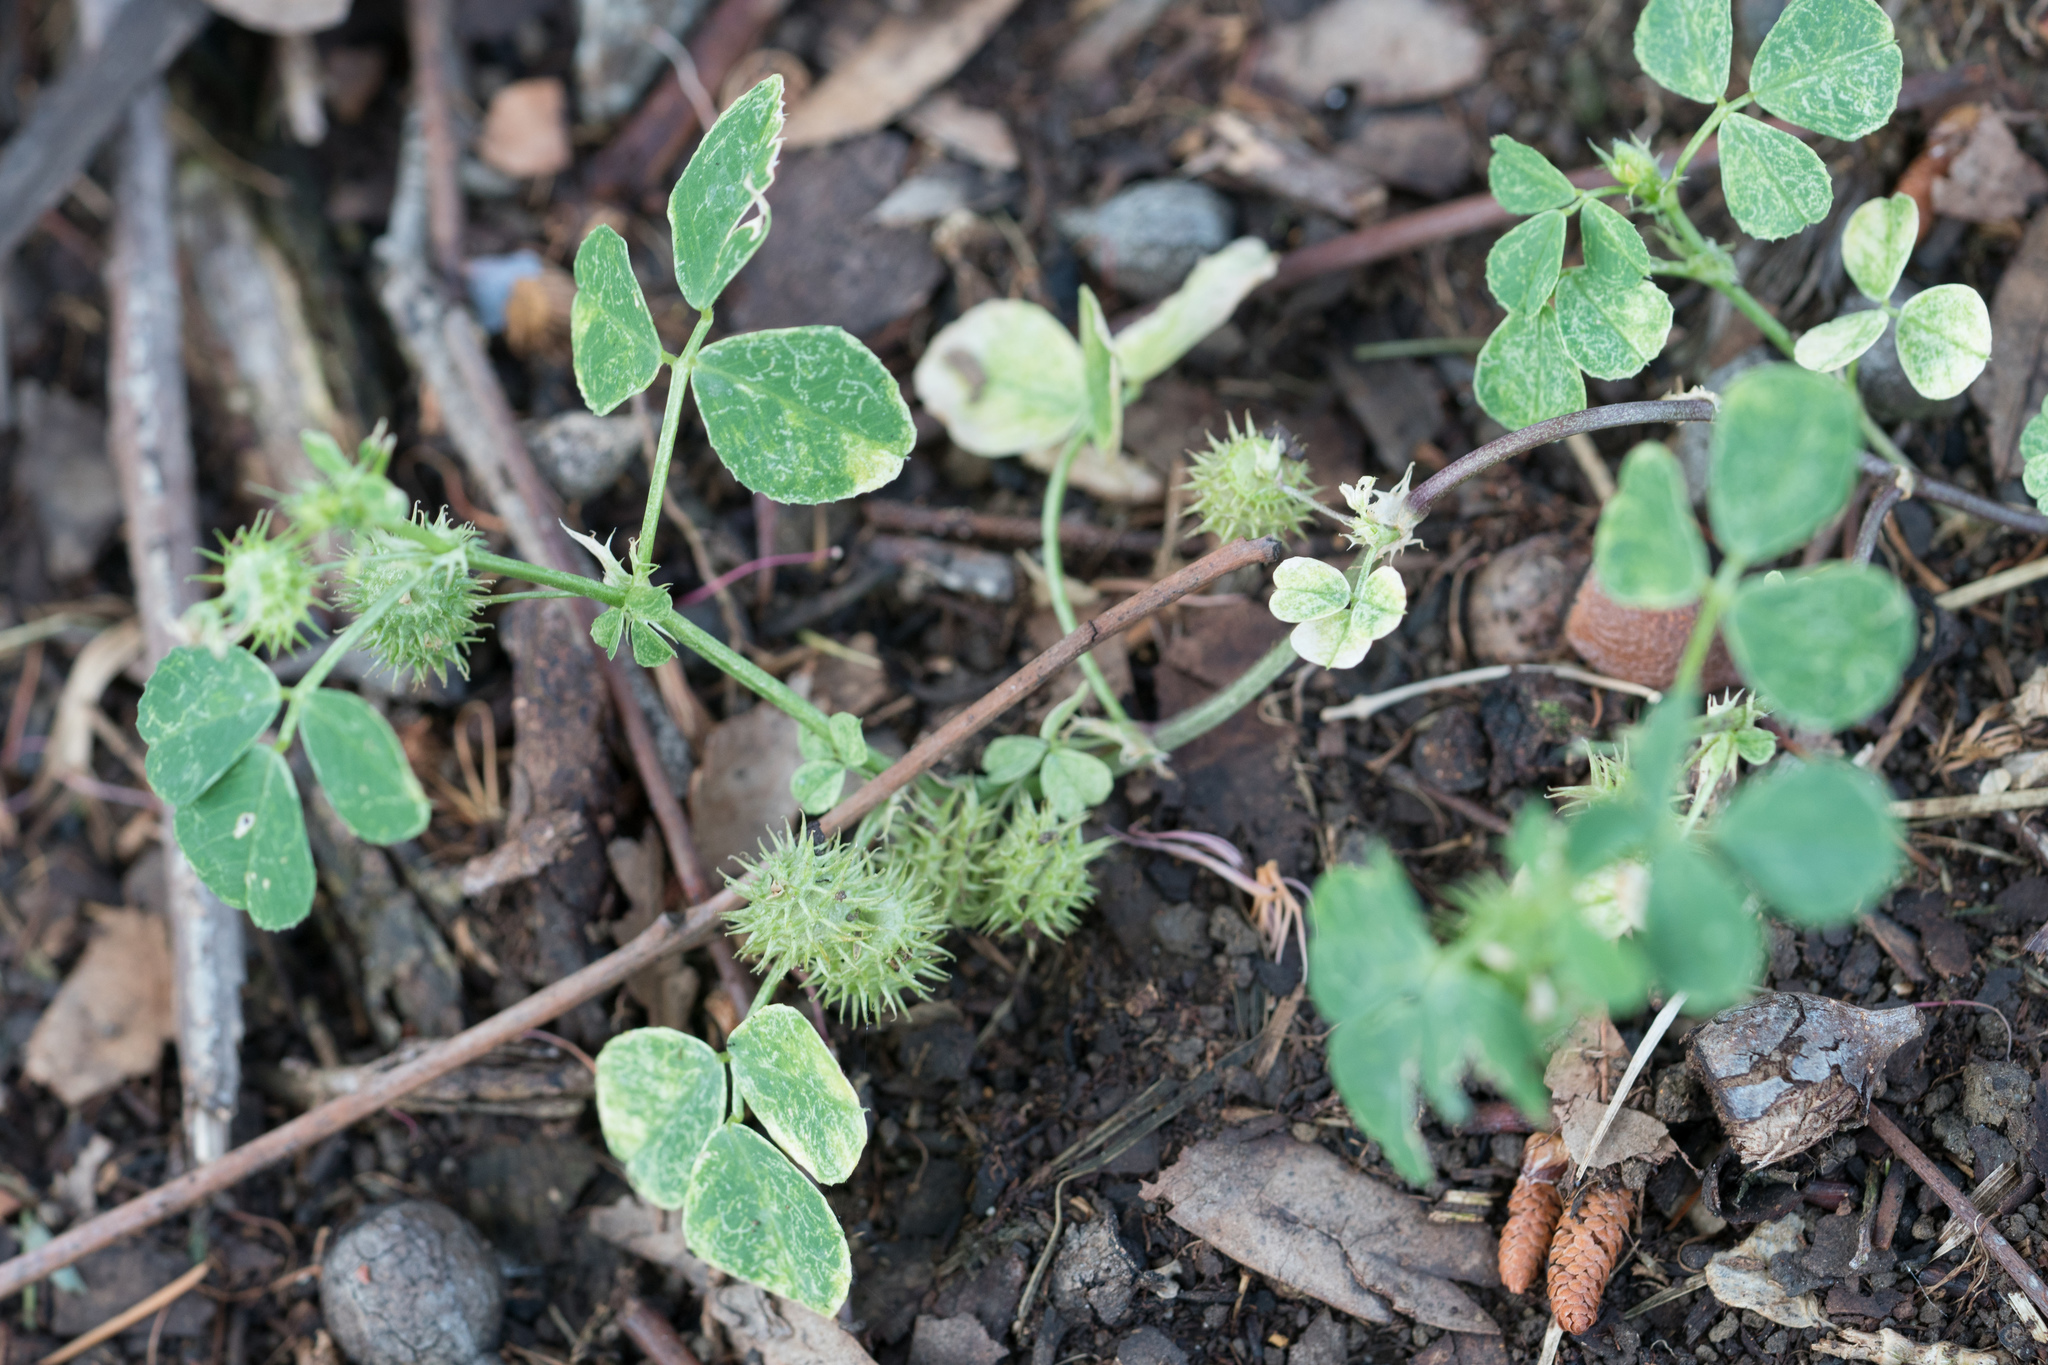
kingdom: Plantae
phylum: Tracheophyta
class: Magnoliopsida
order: Fabales
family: Fabaceae
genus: Medicago
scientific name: Medicago polymorpha
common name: Burclover
